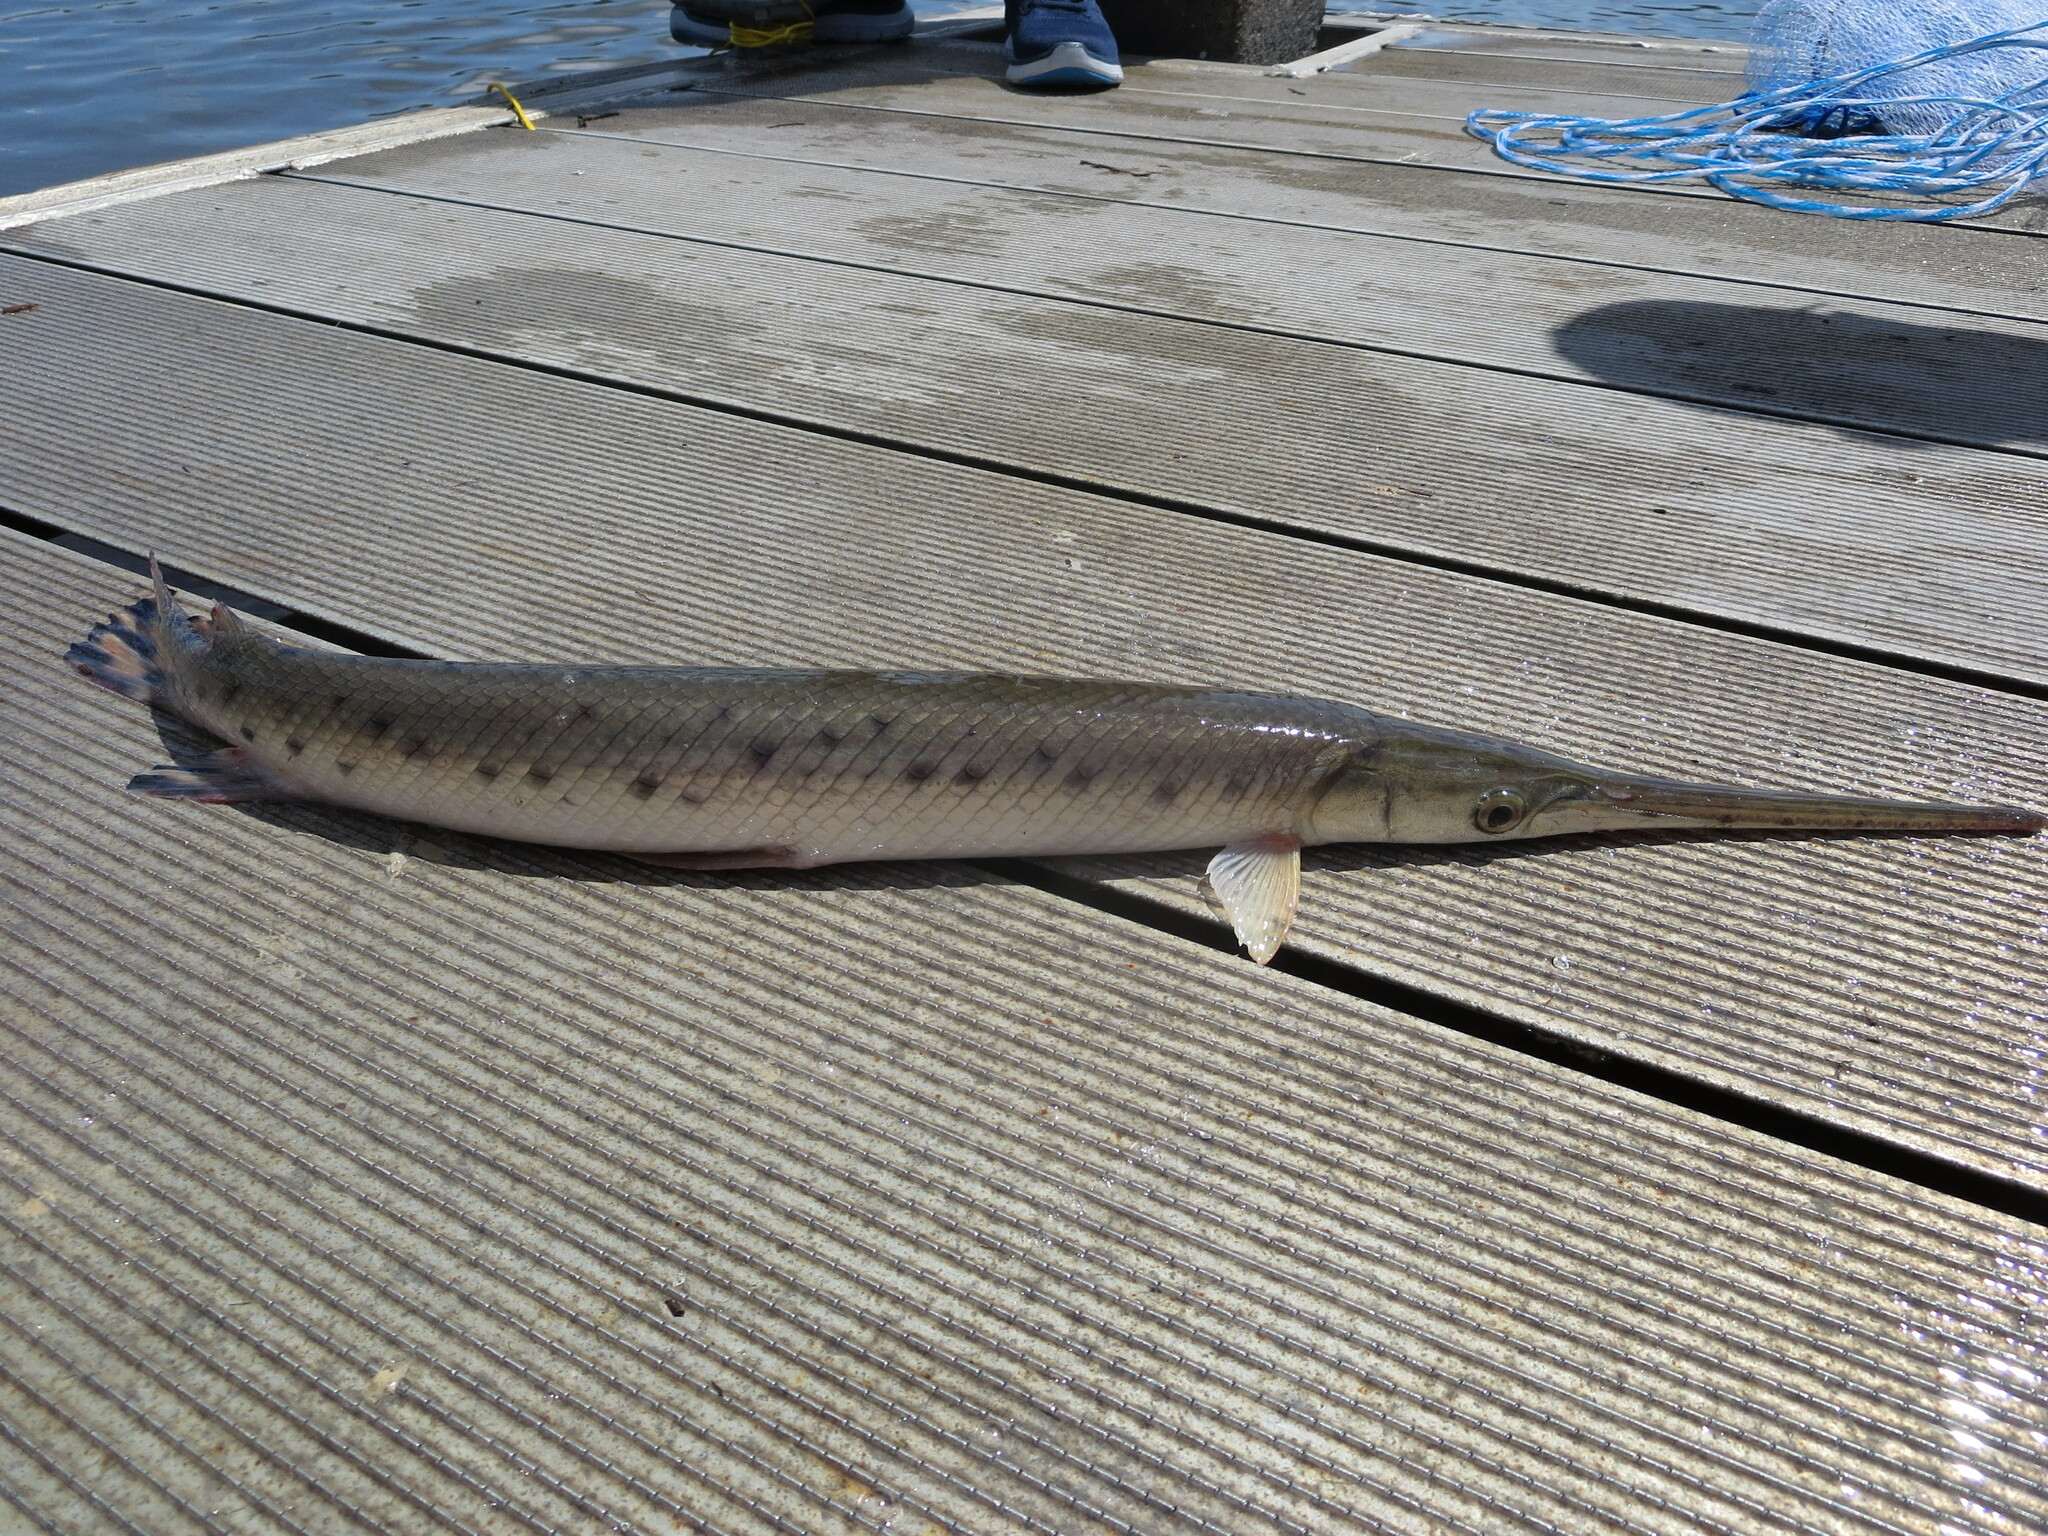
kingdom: Animalia
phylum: Chordata
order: Lepisosteiformes
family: Lepisosteidae
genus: Lepisosteus
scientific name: Lepisosteus osseus
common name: Longnose gar
